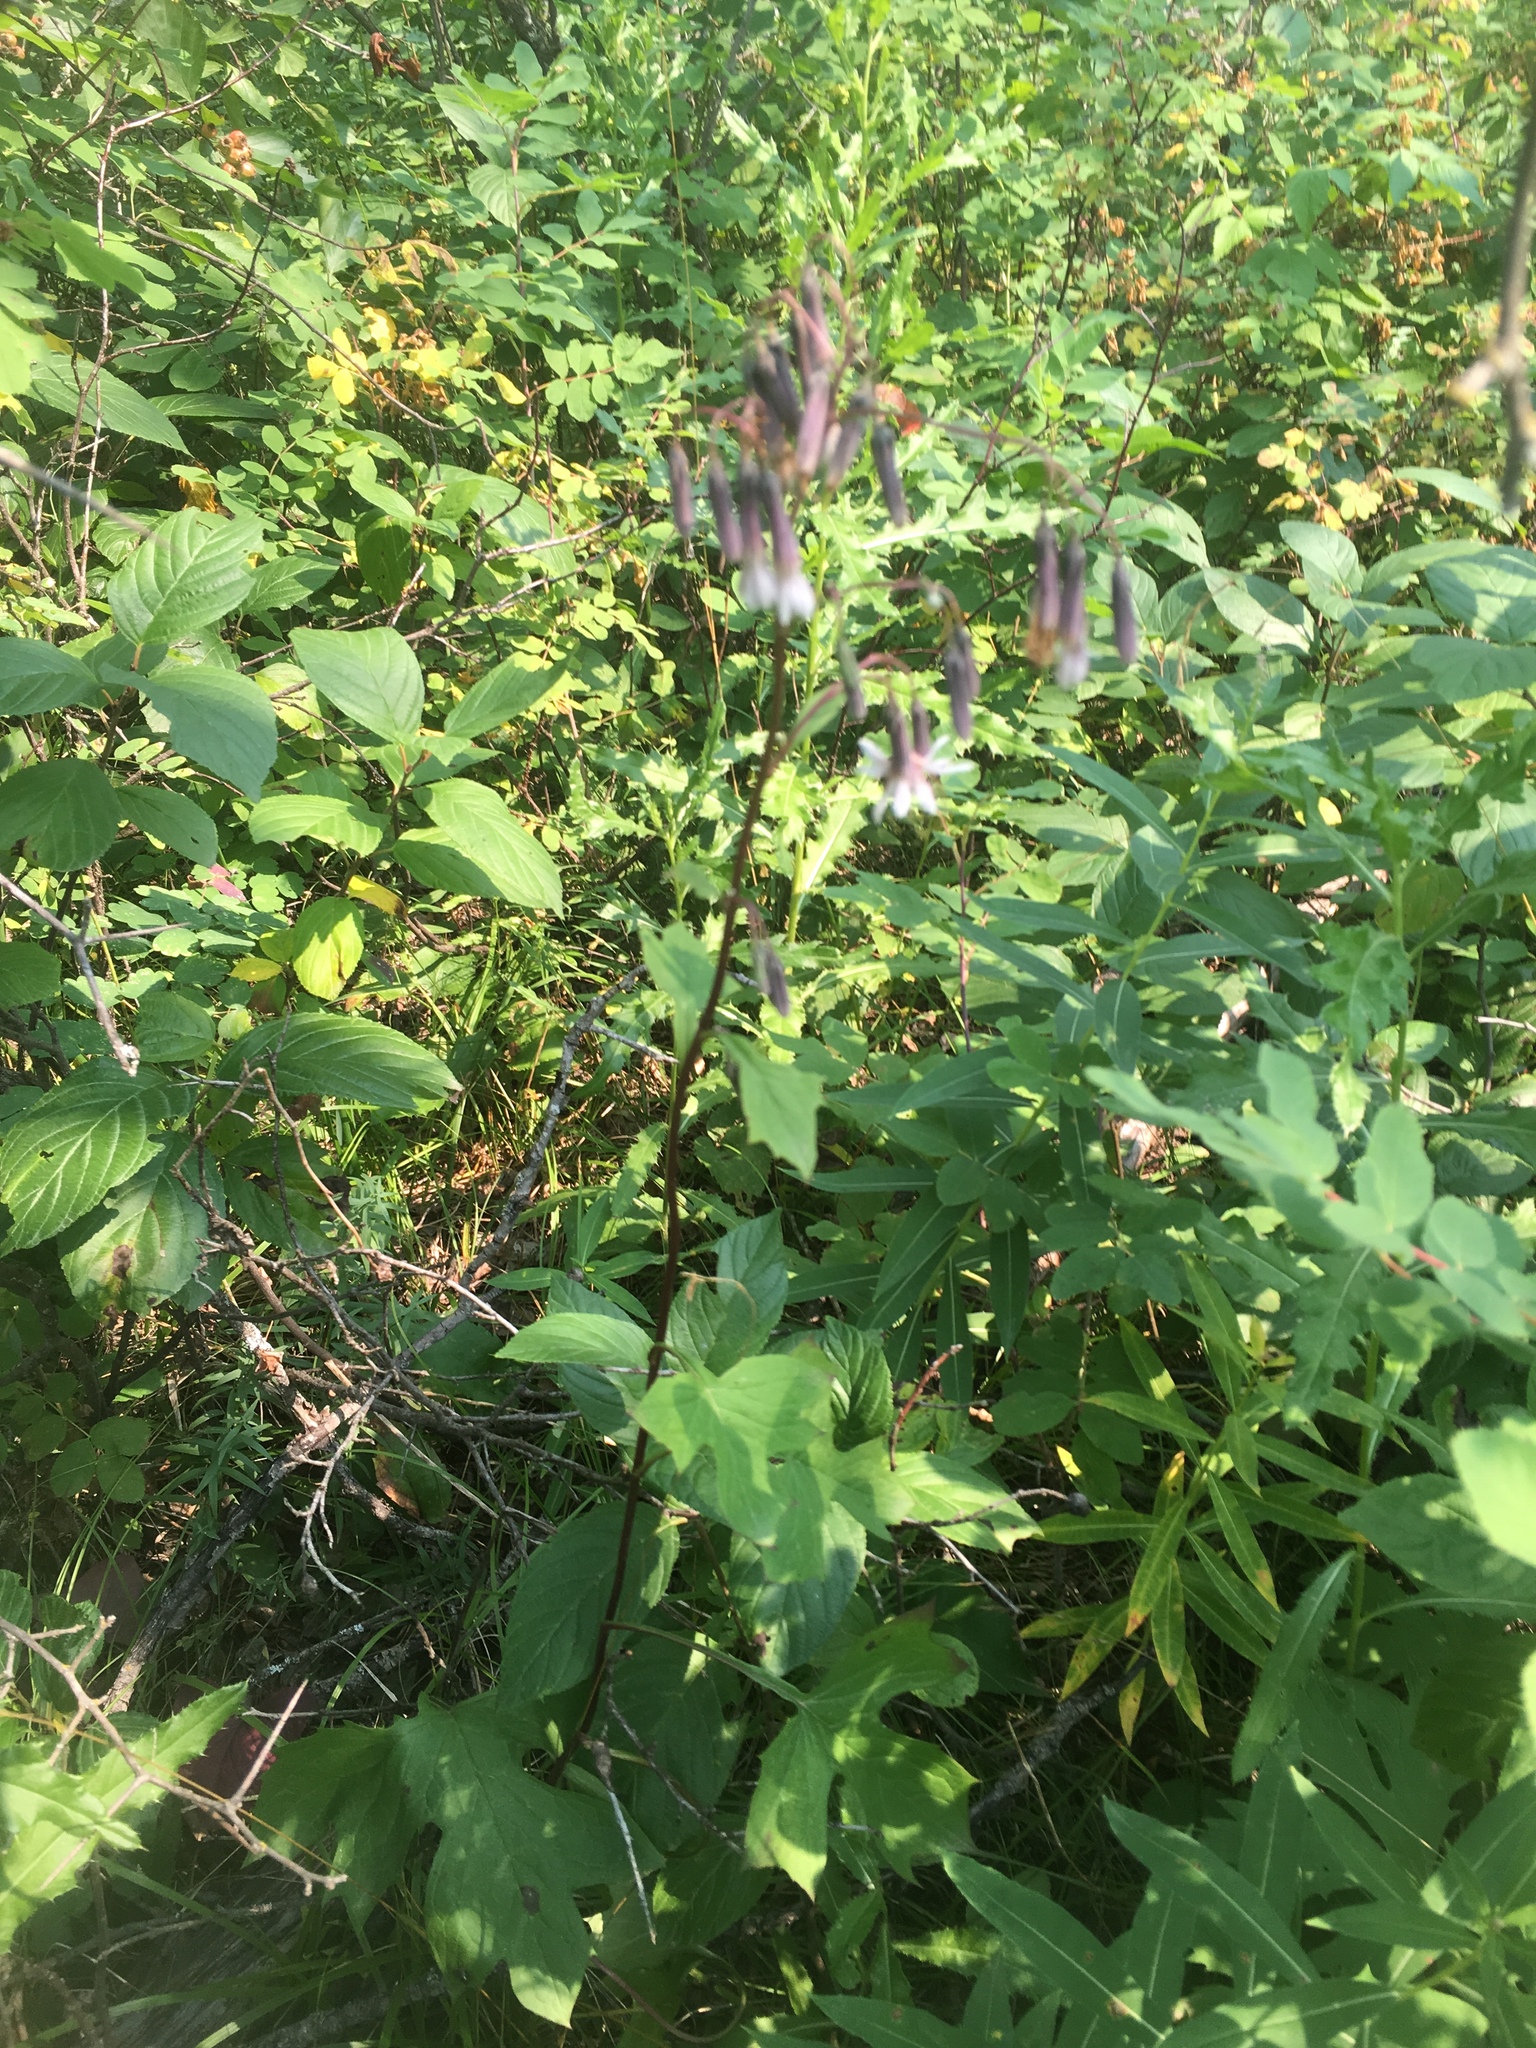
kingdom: Plantae
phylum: Tracheophyta
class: Magnoliopsida
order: Asterales
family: Asteraceae
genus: Nabalus
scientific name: Nabalus albus
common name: White rattlesnakeroot
